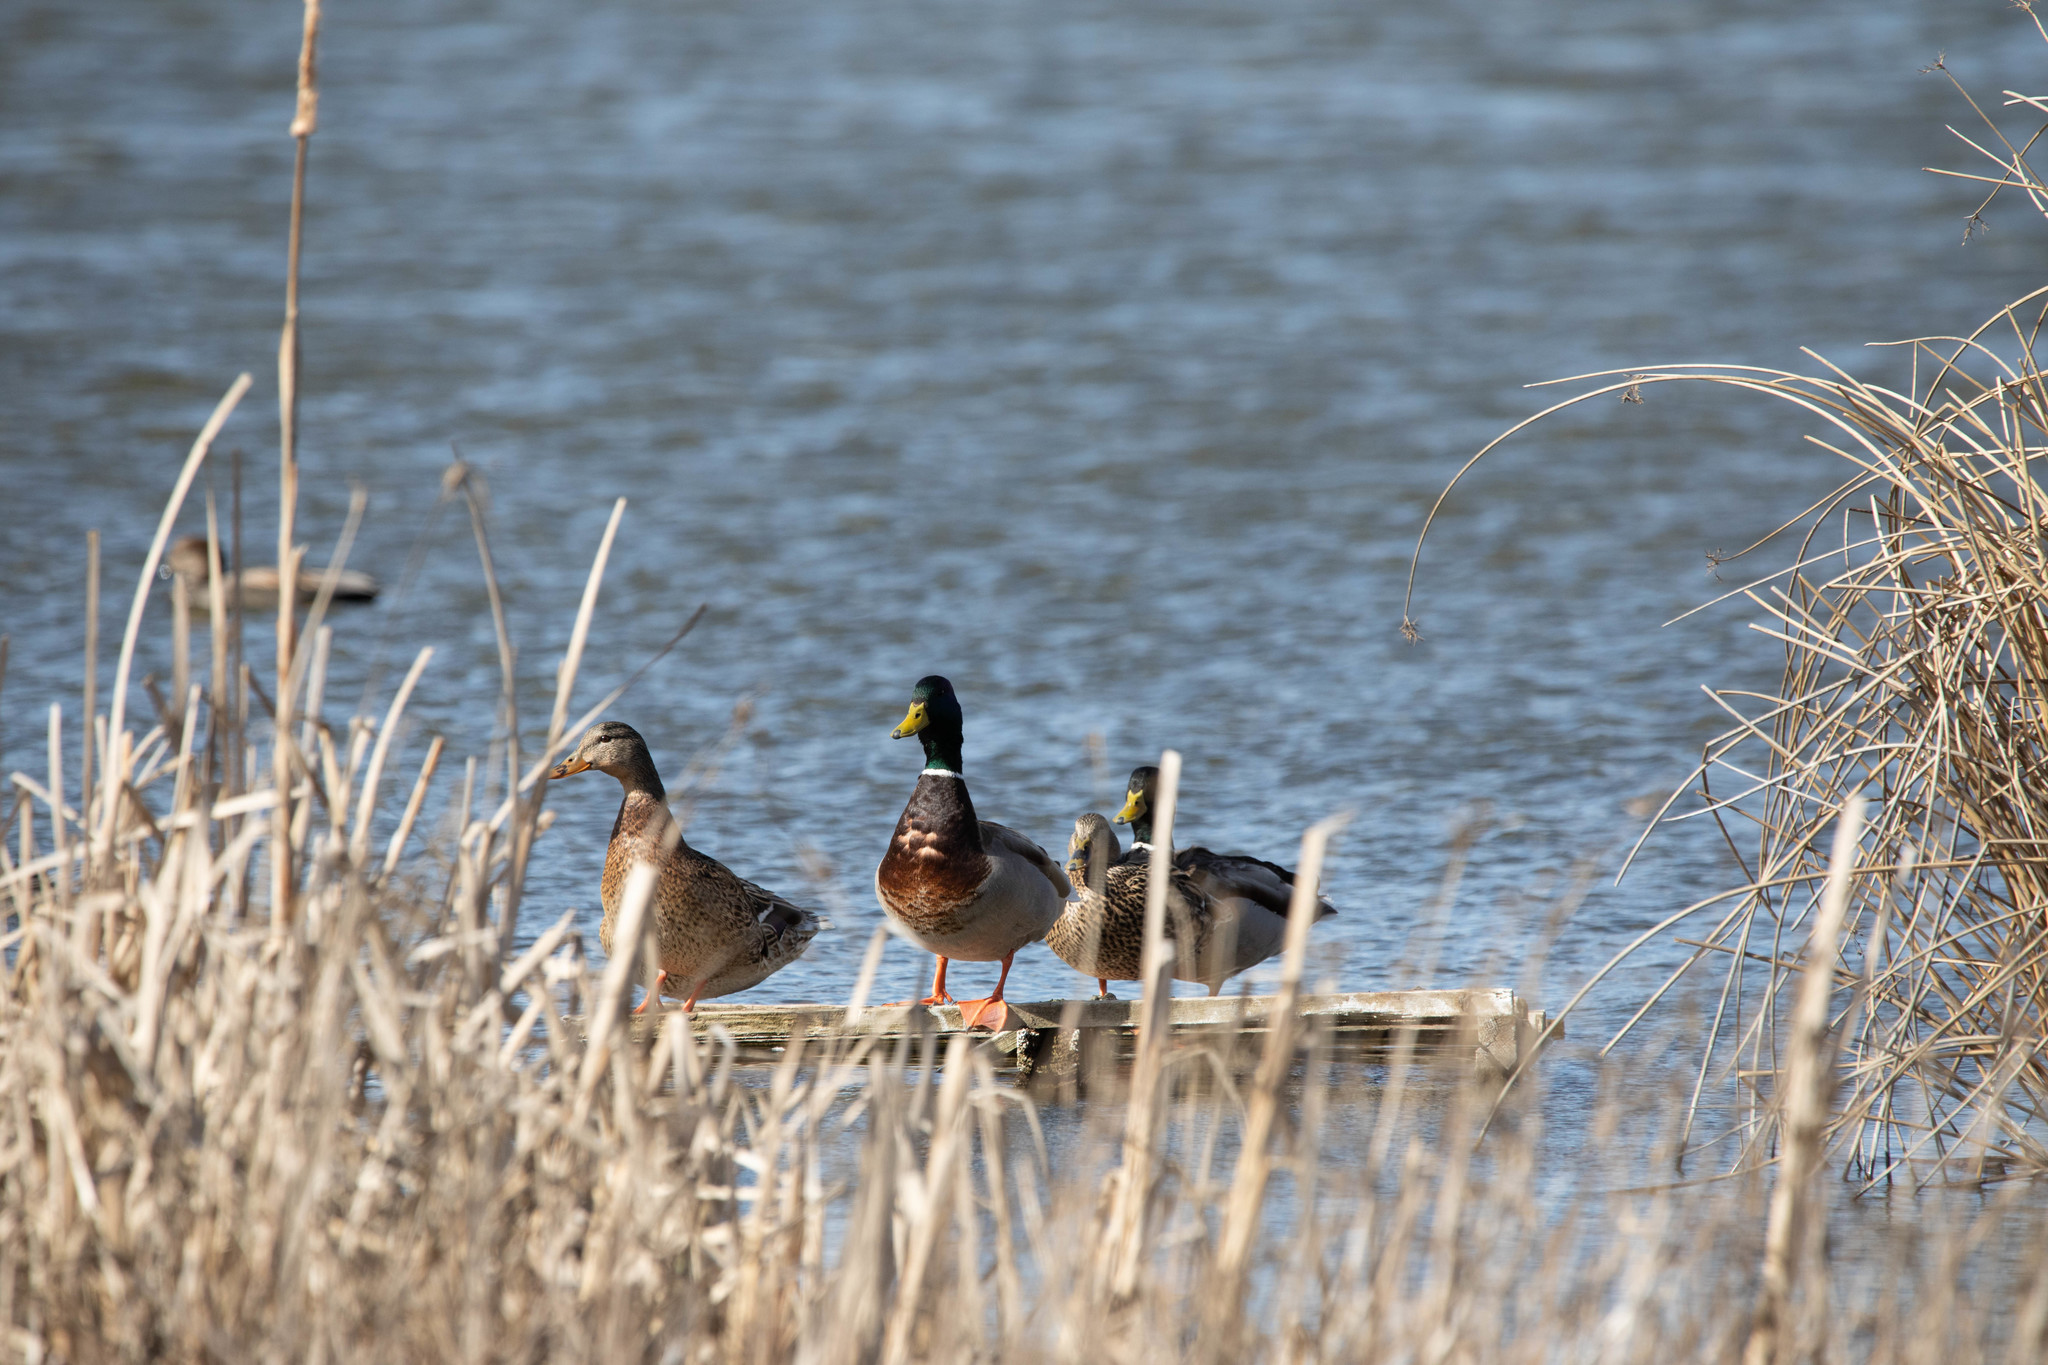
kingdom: Animalia
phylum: Chordata
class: Aves
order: Anseriformes
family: Anatidae
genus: Anas
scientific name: Anas platyrhynchos
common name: Mallard
